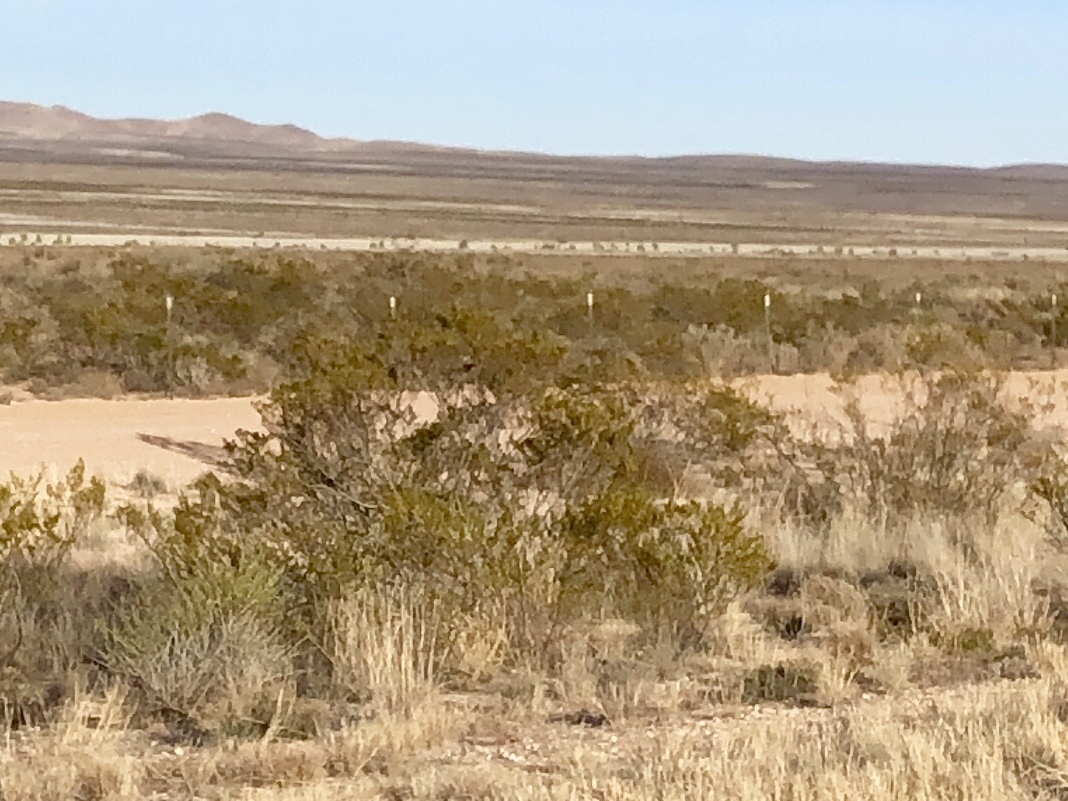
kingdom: Plantae
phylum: Tracheophyta
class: Magnoliopsida
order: Zygophyllales
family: Zygophyllaceae
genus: Larrea
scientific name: Larrea tridentata
